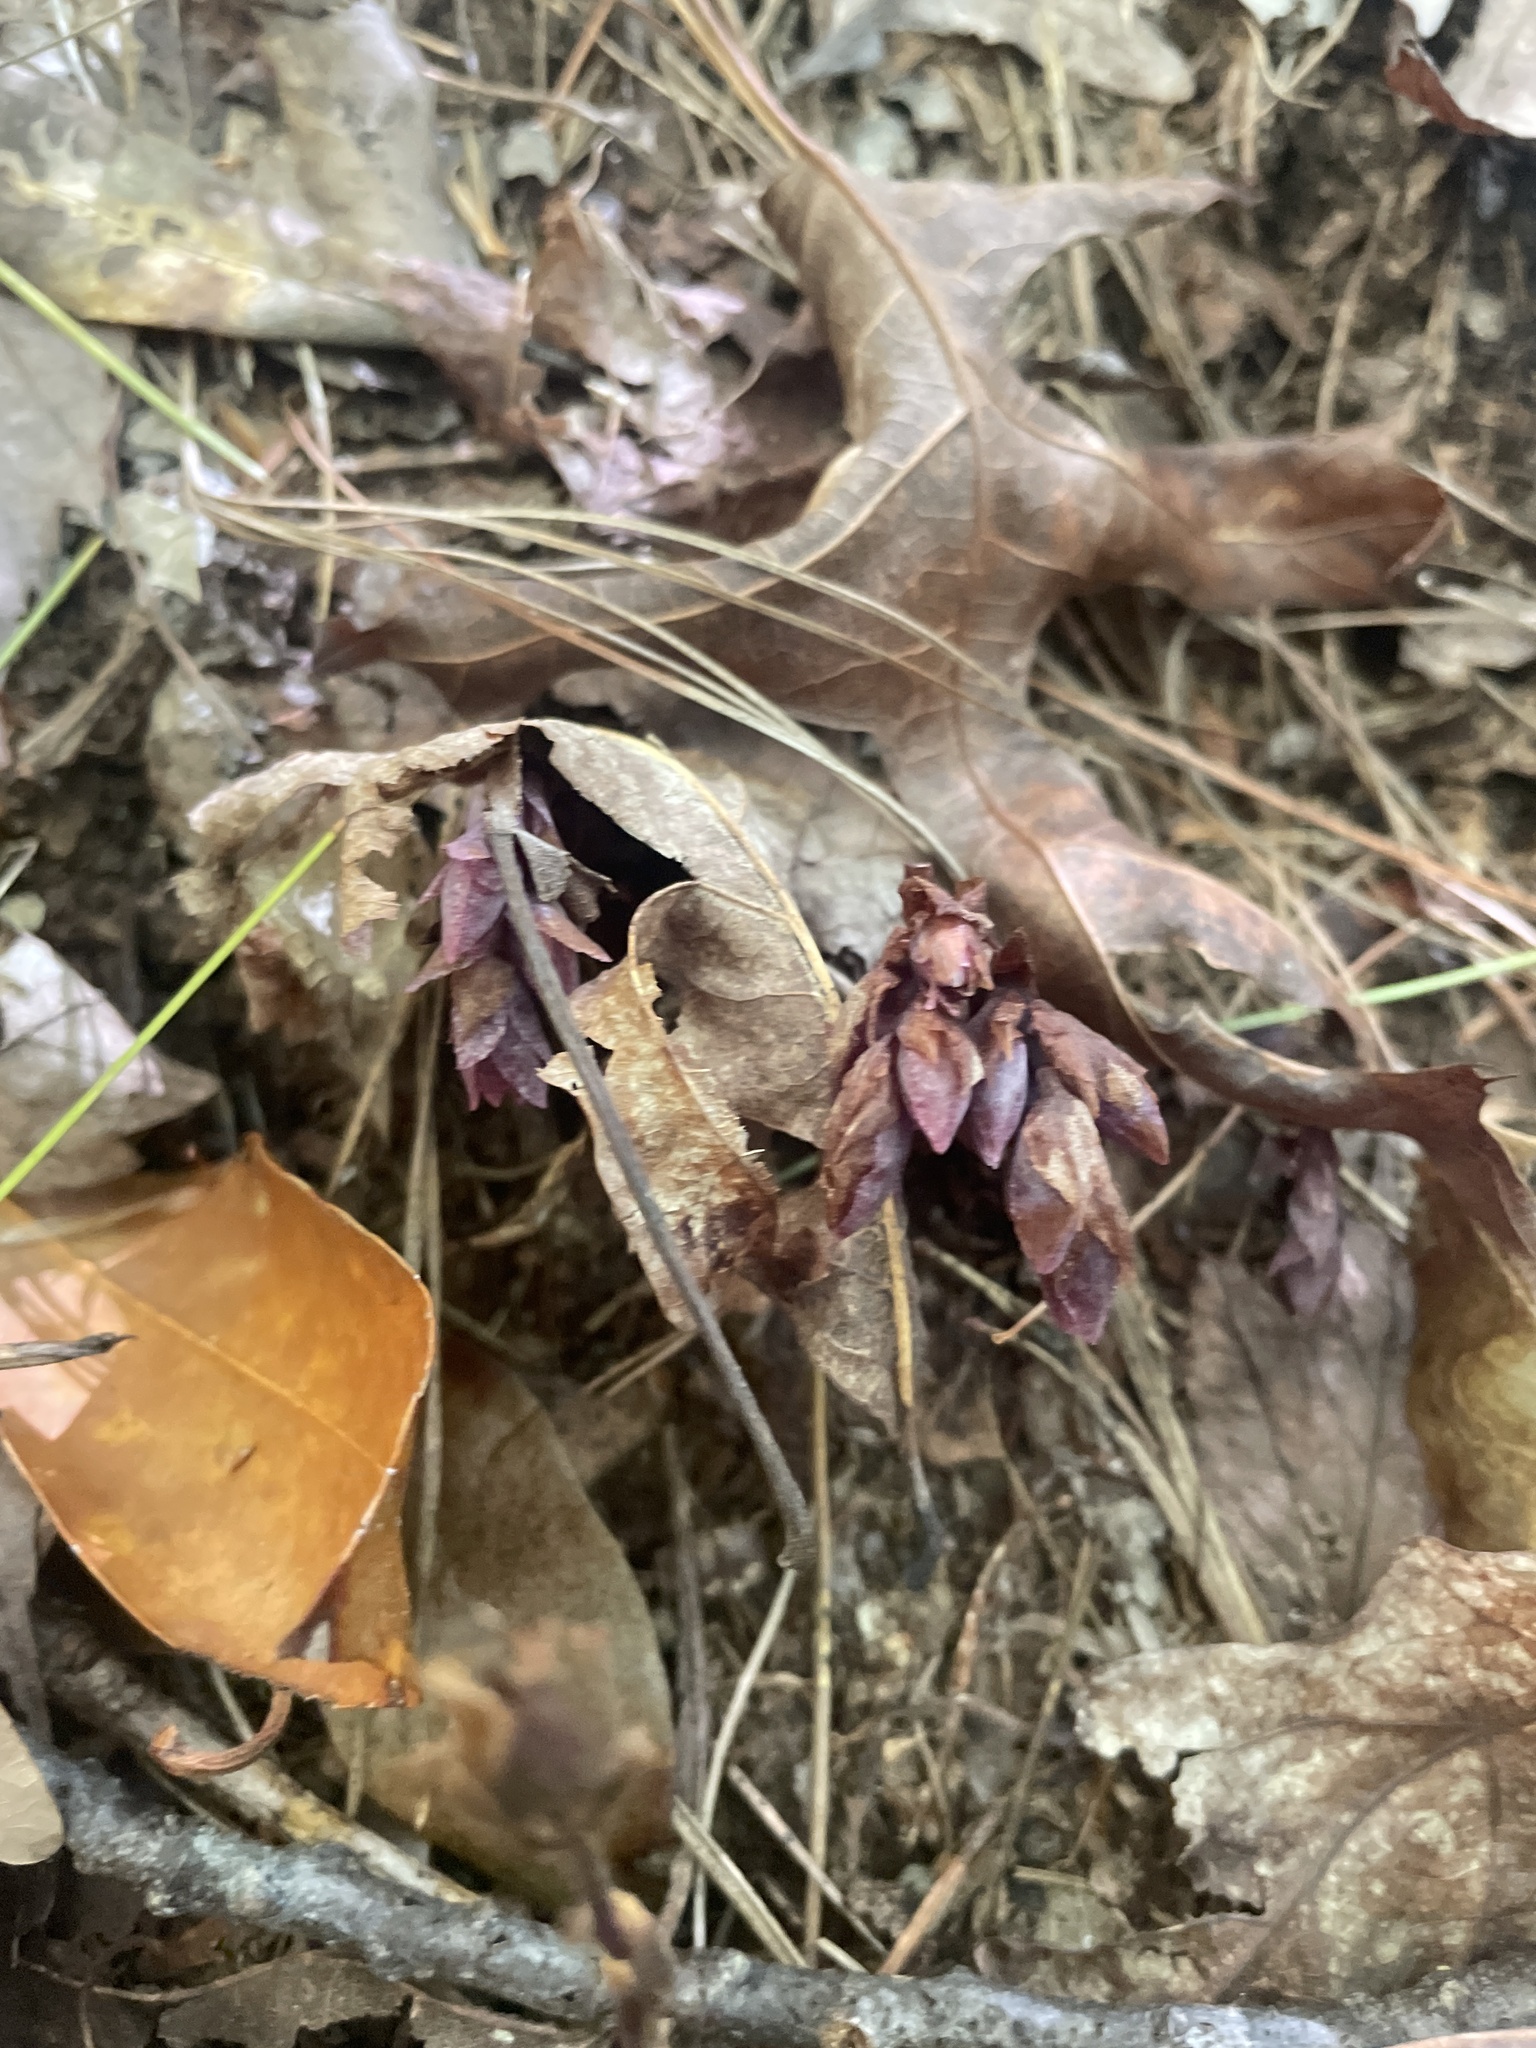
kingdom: Plantae
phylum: Tracheophyta
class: Magnoliopsida
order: Ericales
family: Ericaceae
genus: Monotropsis
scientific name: Monotropsis odorata
